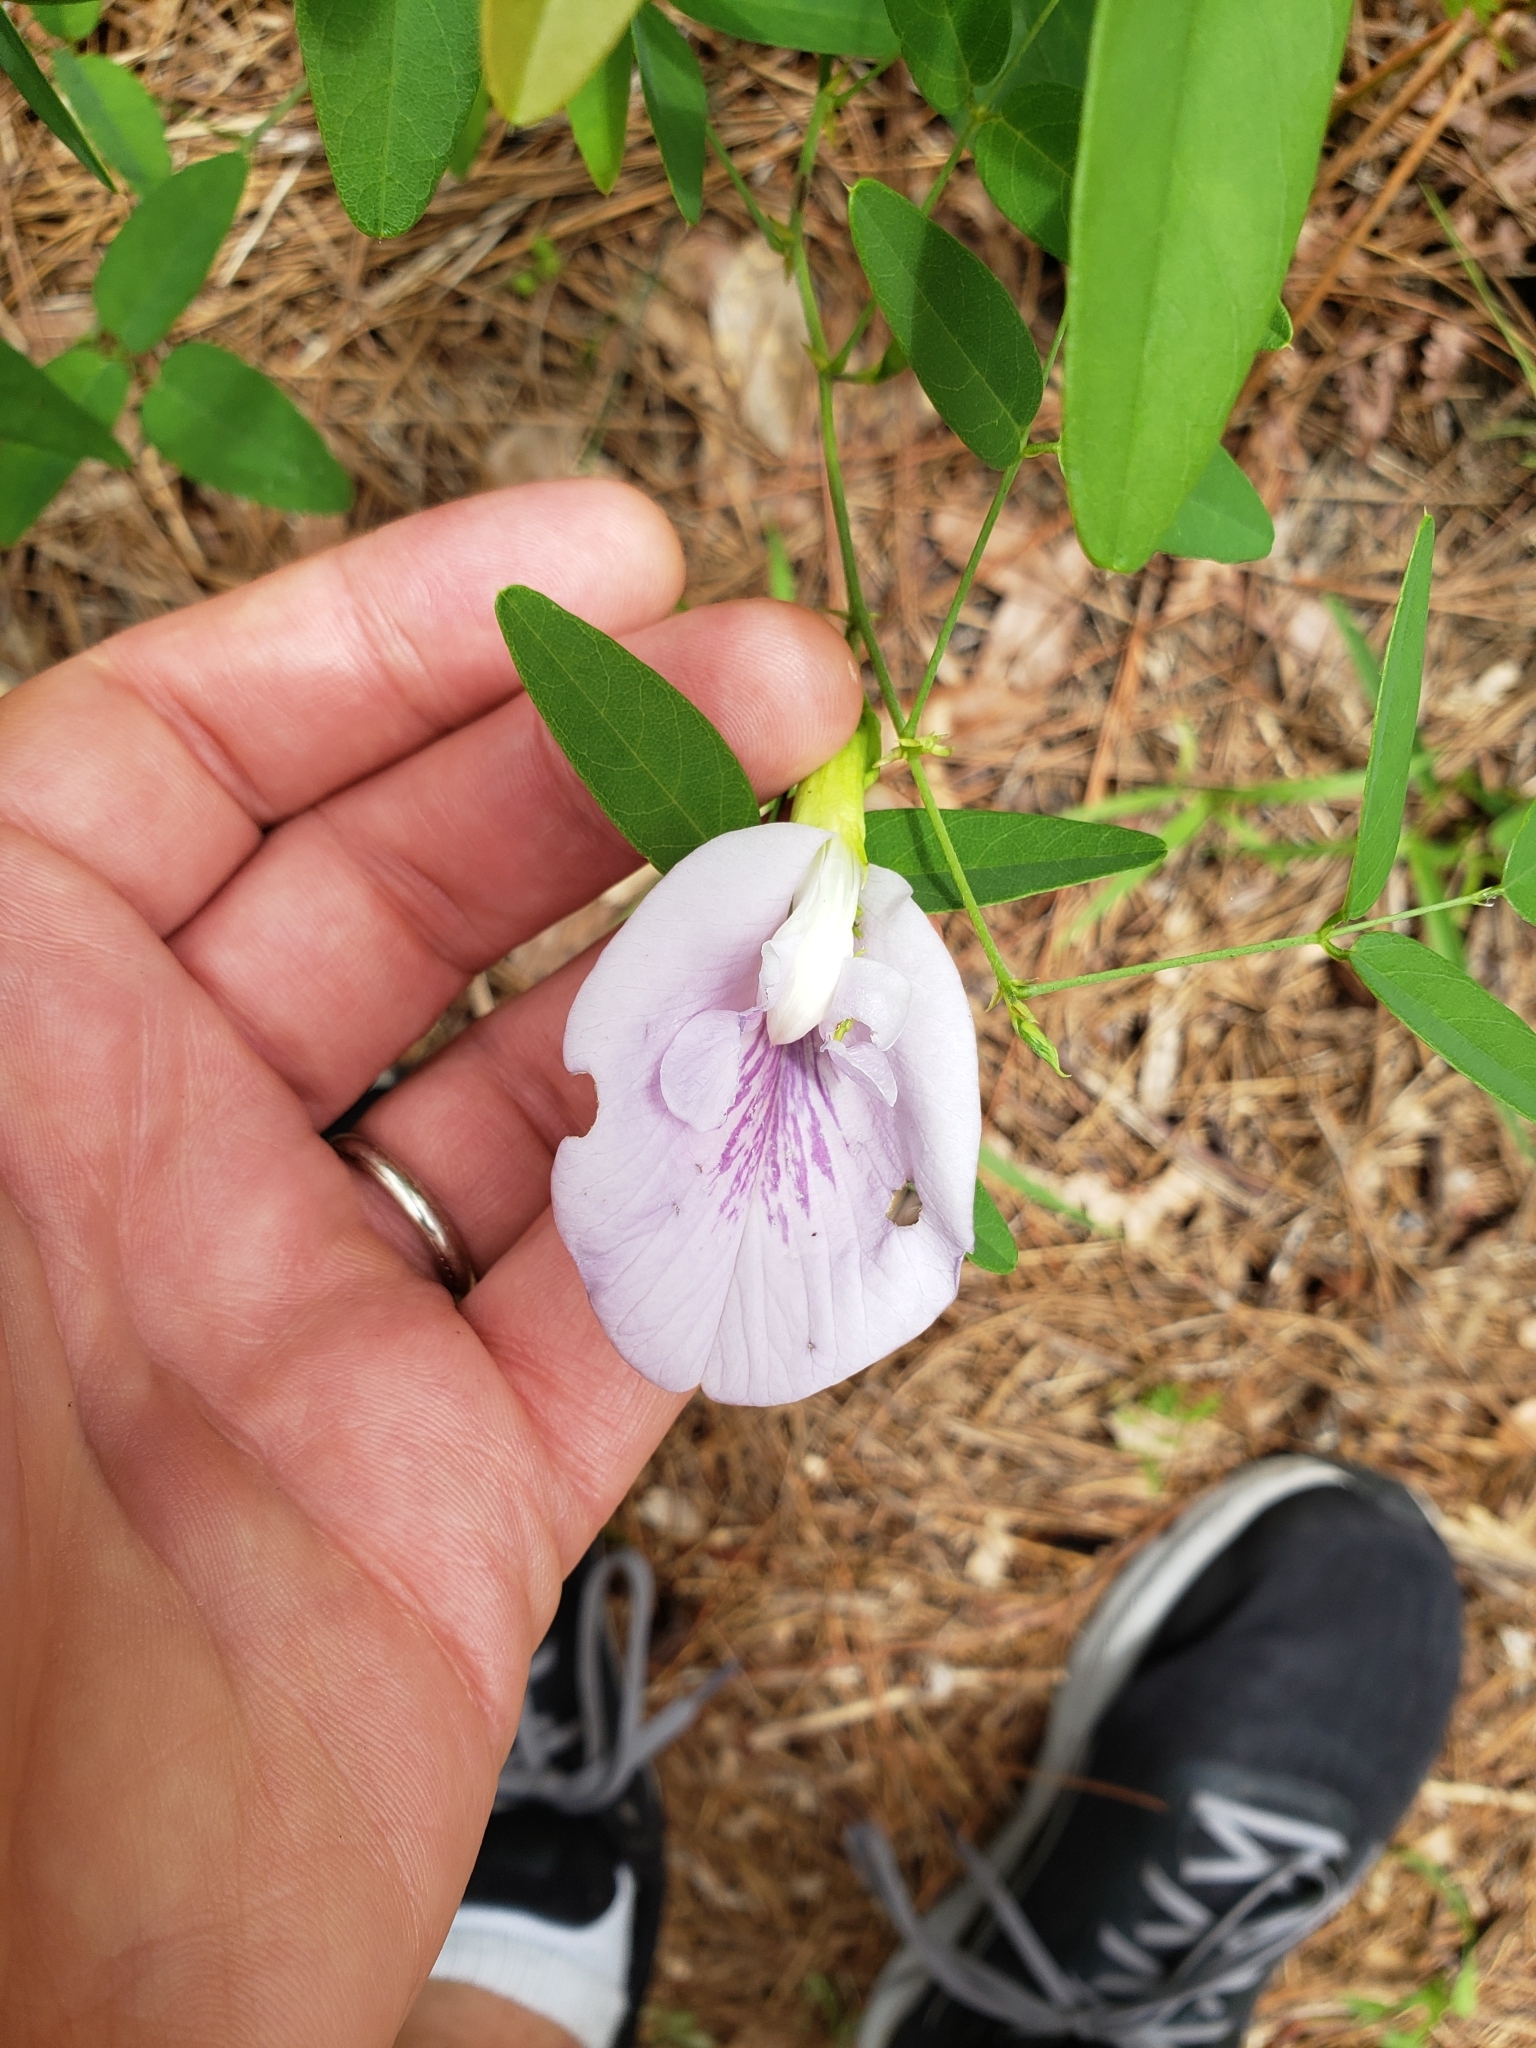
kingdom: Plantae
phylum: Tracheophyta
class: Magnoliopsida
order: Fabales
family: Fabaceae
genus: Clitoria
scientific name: Clitoria mariana
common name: Butterfly-pea
